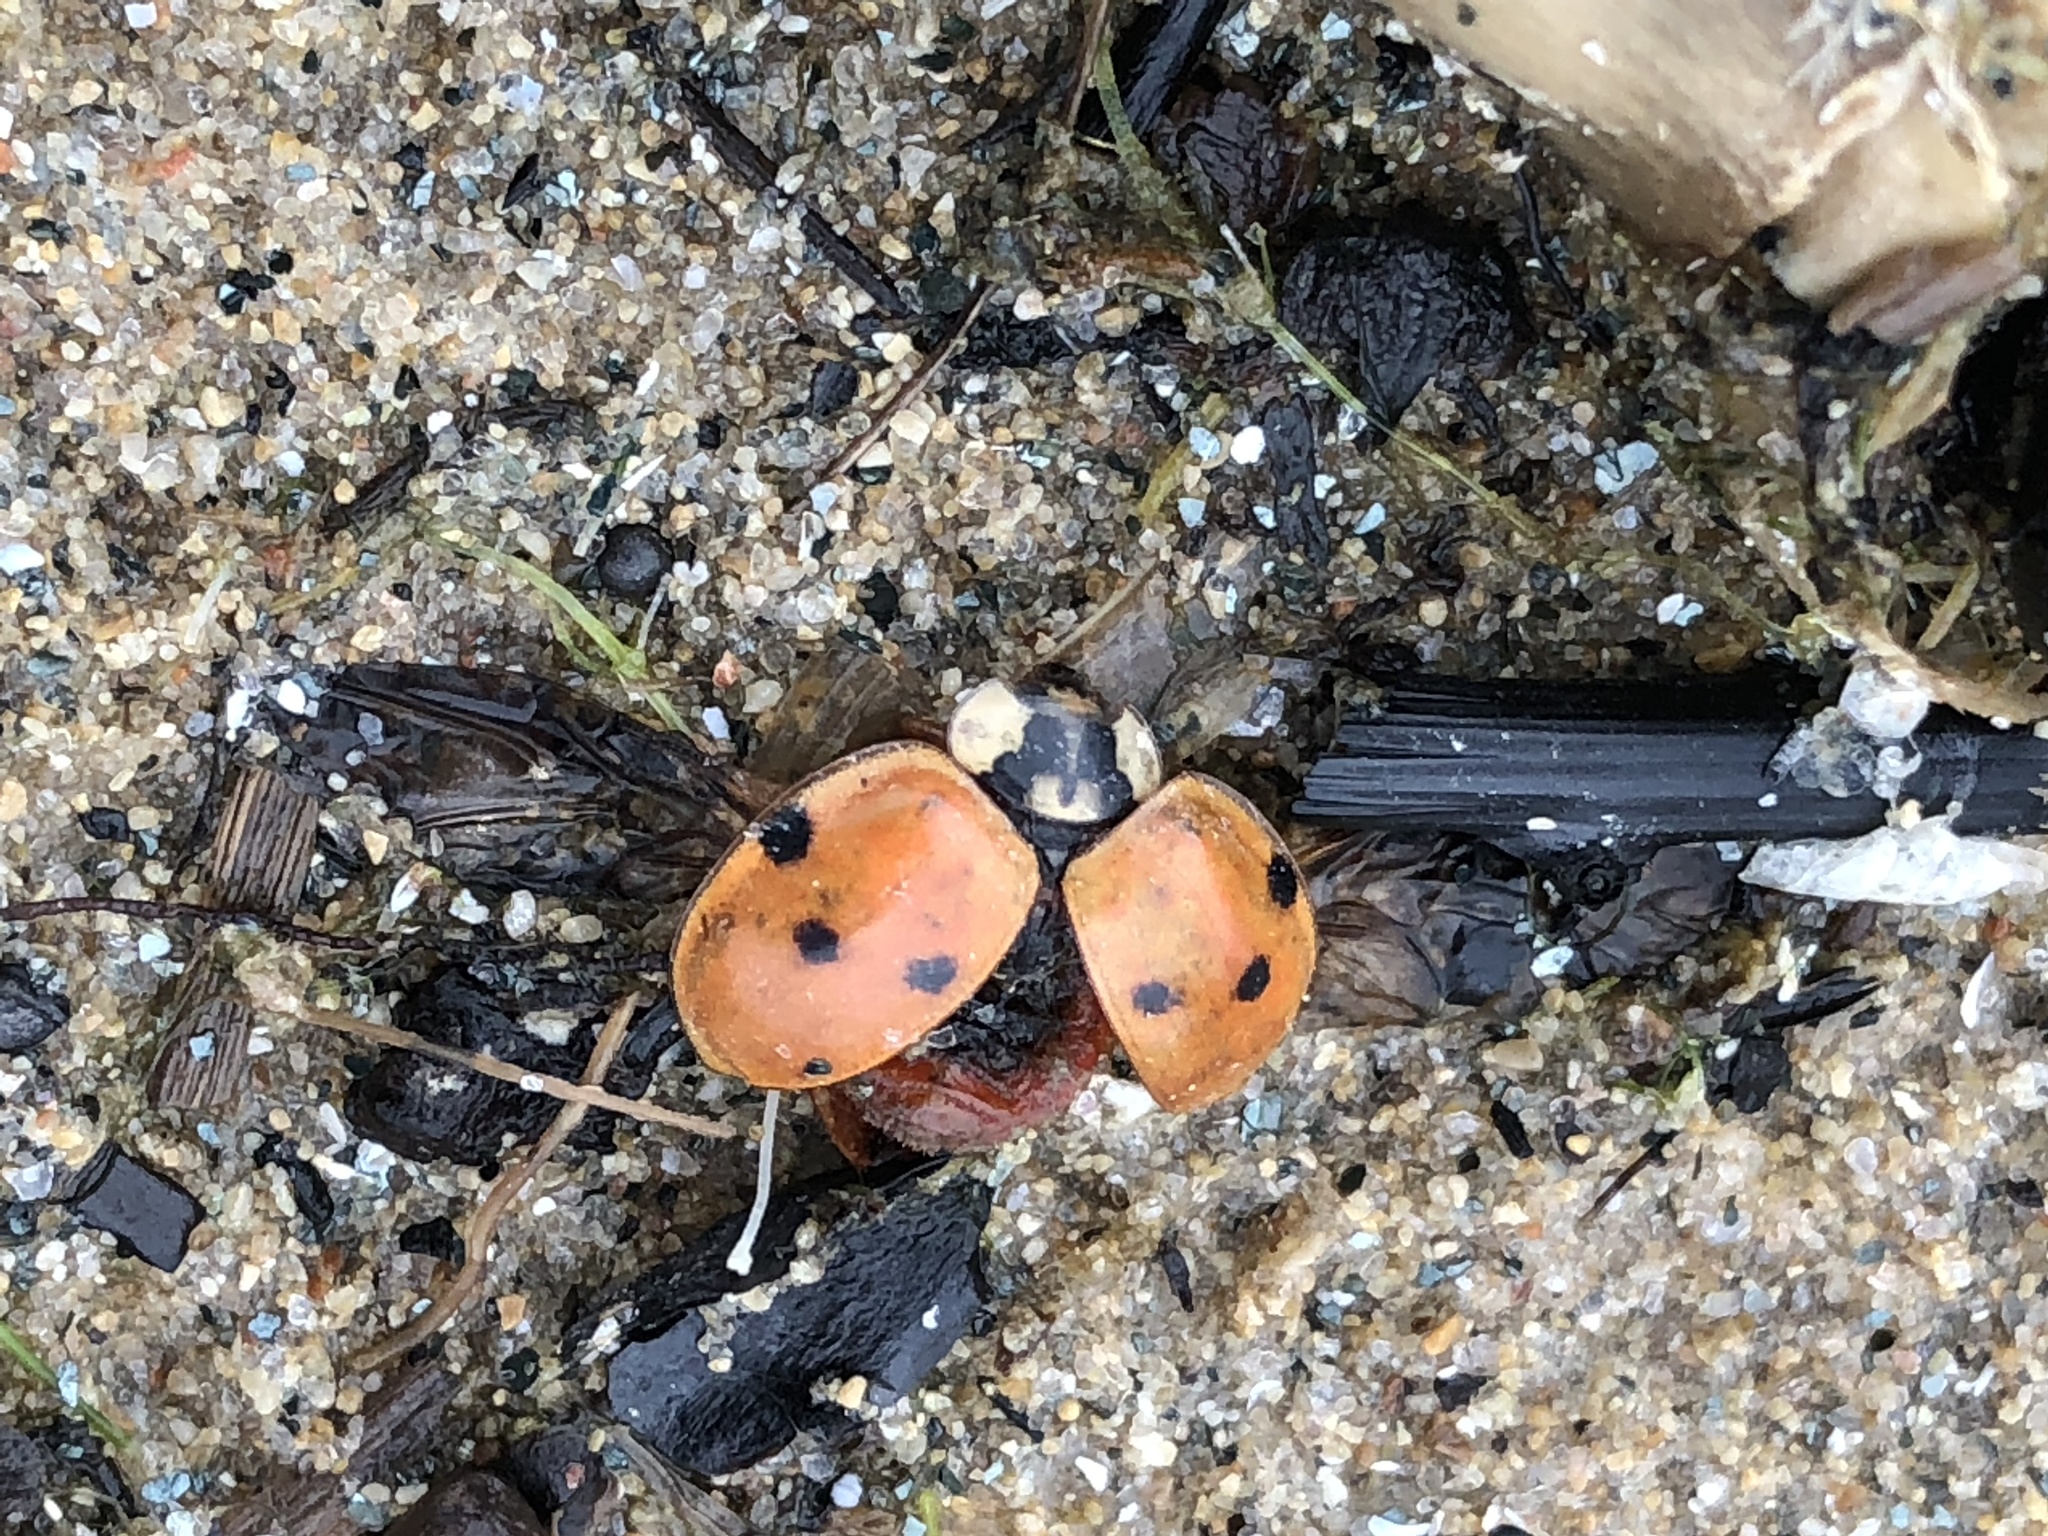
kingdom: Animalia
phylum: Arthropoda
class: Insecta
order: Coleoptera
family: Coccinellidae
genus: Harmonia
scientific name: Harmonia axyridis
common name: Harlequin ladybird
